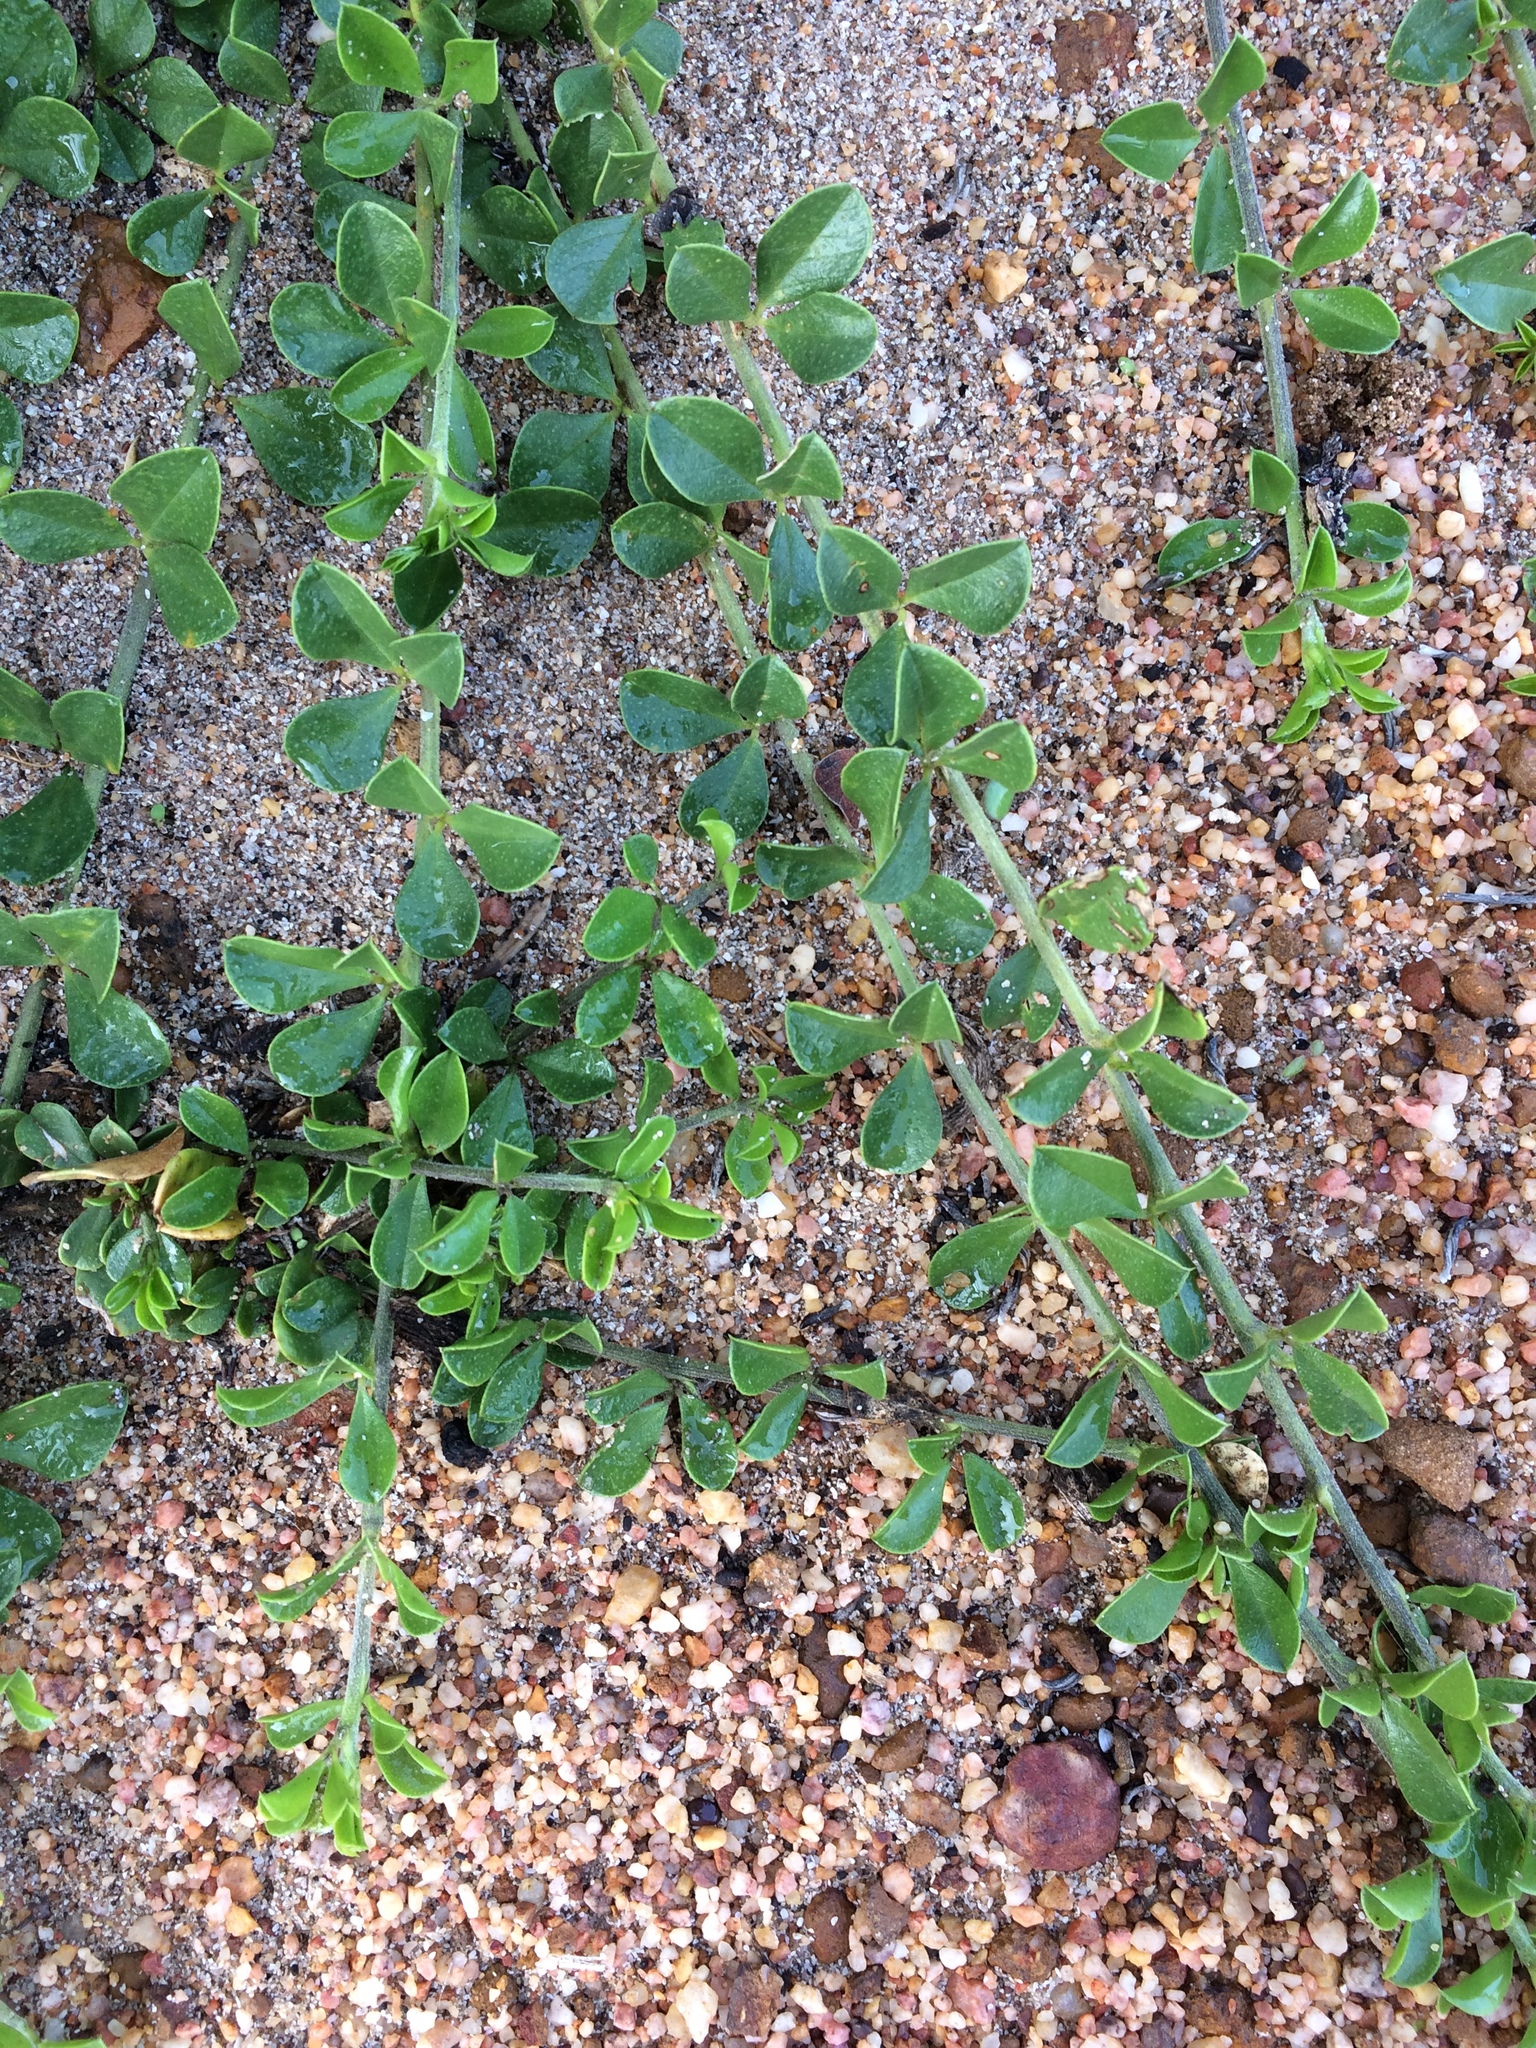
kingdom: Plantae
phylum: Tracheophyta
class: Magnoliopsida
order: Fabales
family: Fabaceae
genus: Psoralea
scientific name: Psoralea
